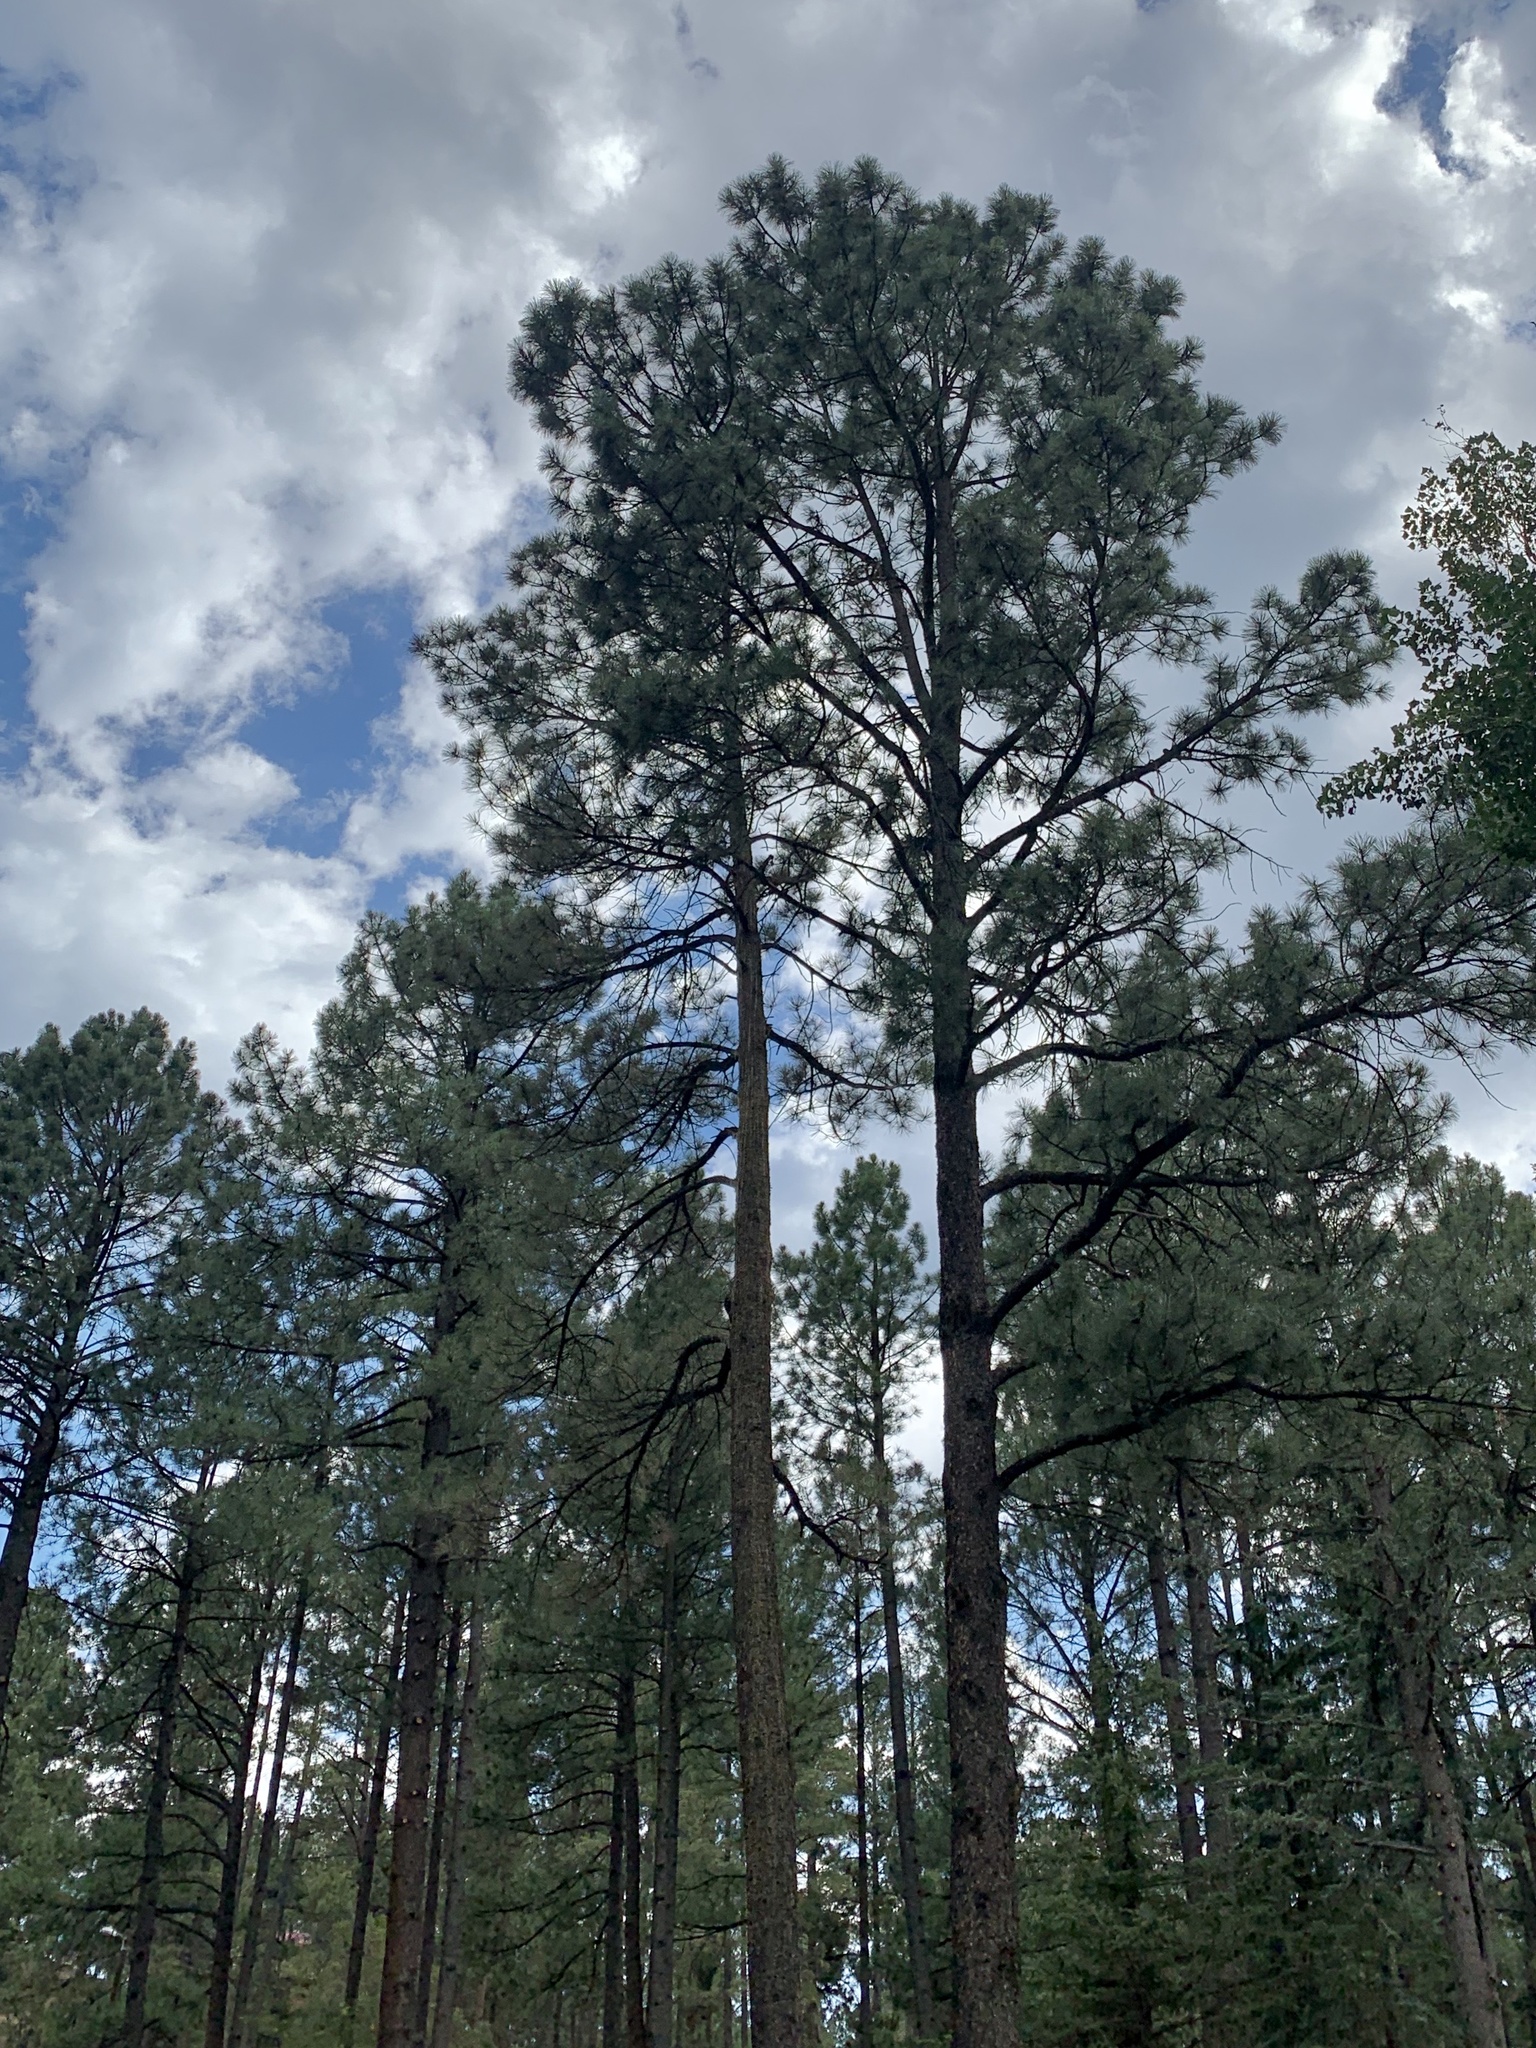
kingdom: Plantae
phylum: Tracheophyta
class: Pinopsida
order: Pinales
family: Pinaceae
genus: Pinus
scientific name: Pinus ponderosa
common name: Western yellow-pine
